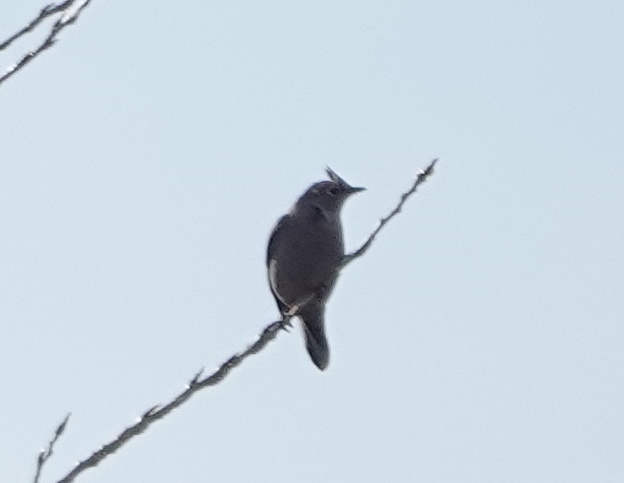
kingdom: Animalia
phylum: Chordata
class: Aves
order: Passeriformes
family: Turdidae
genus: Myadestes
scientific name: Myadestes townsendi
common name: Townsend's solitaire
